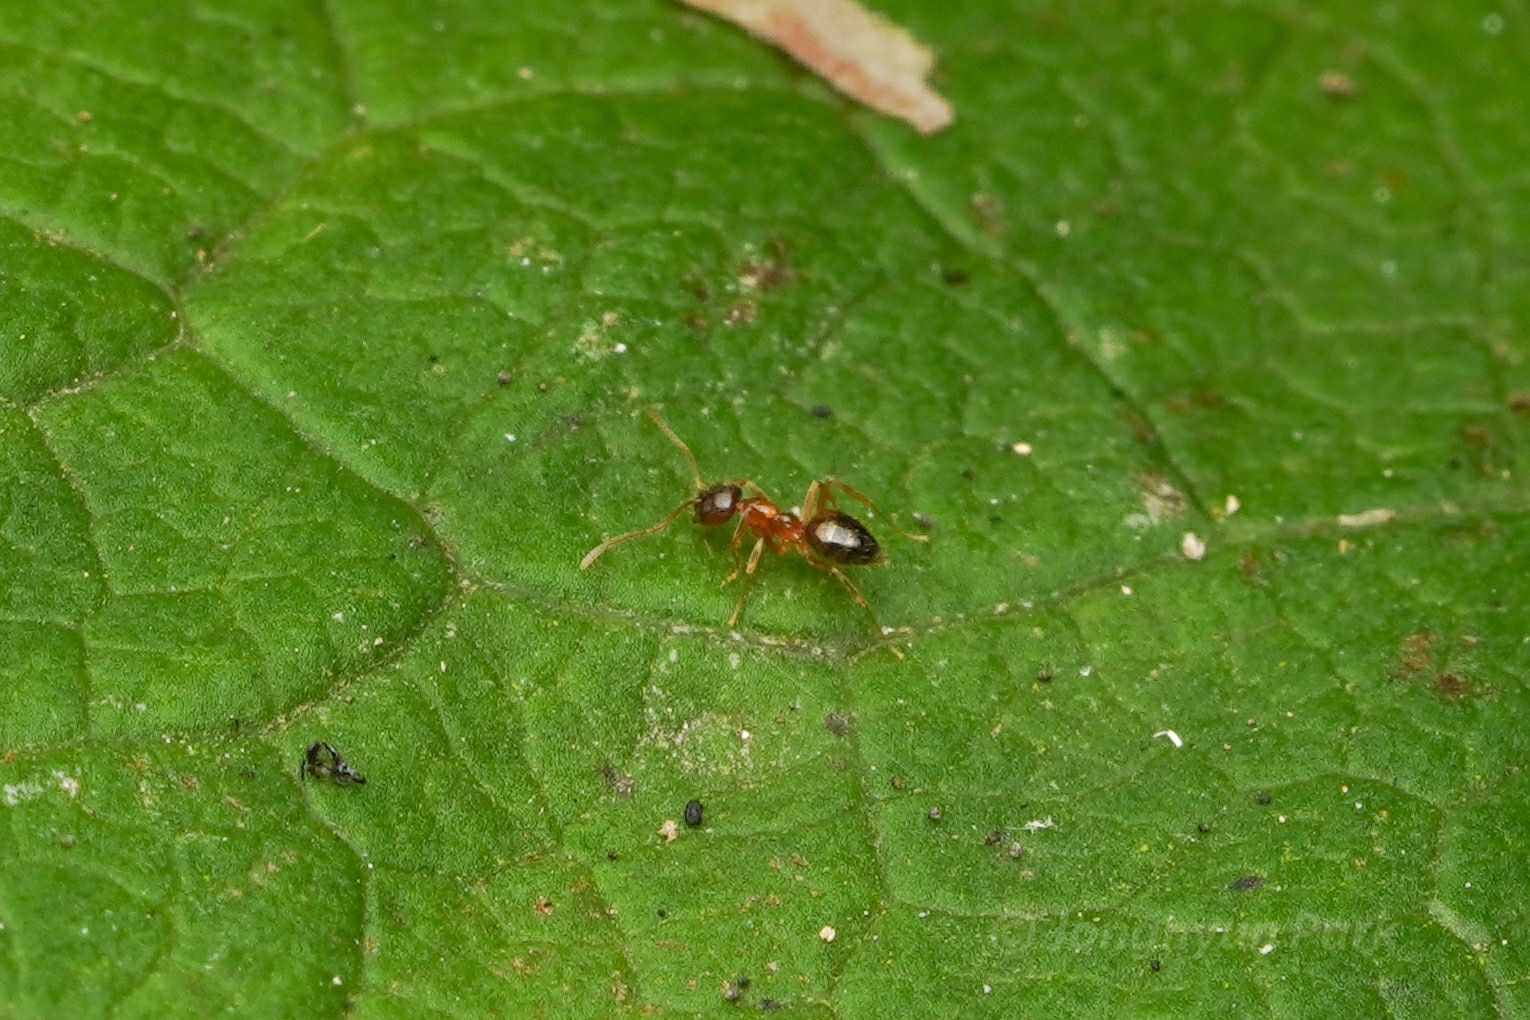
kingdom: Animalia
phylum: Arthropoda
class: Insecta
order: Hymenoptera
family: Formicidae
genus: Paratrechina
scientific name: Paratrechina flavipes
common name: Eastern asian formicine ant
